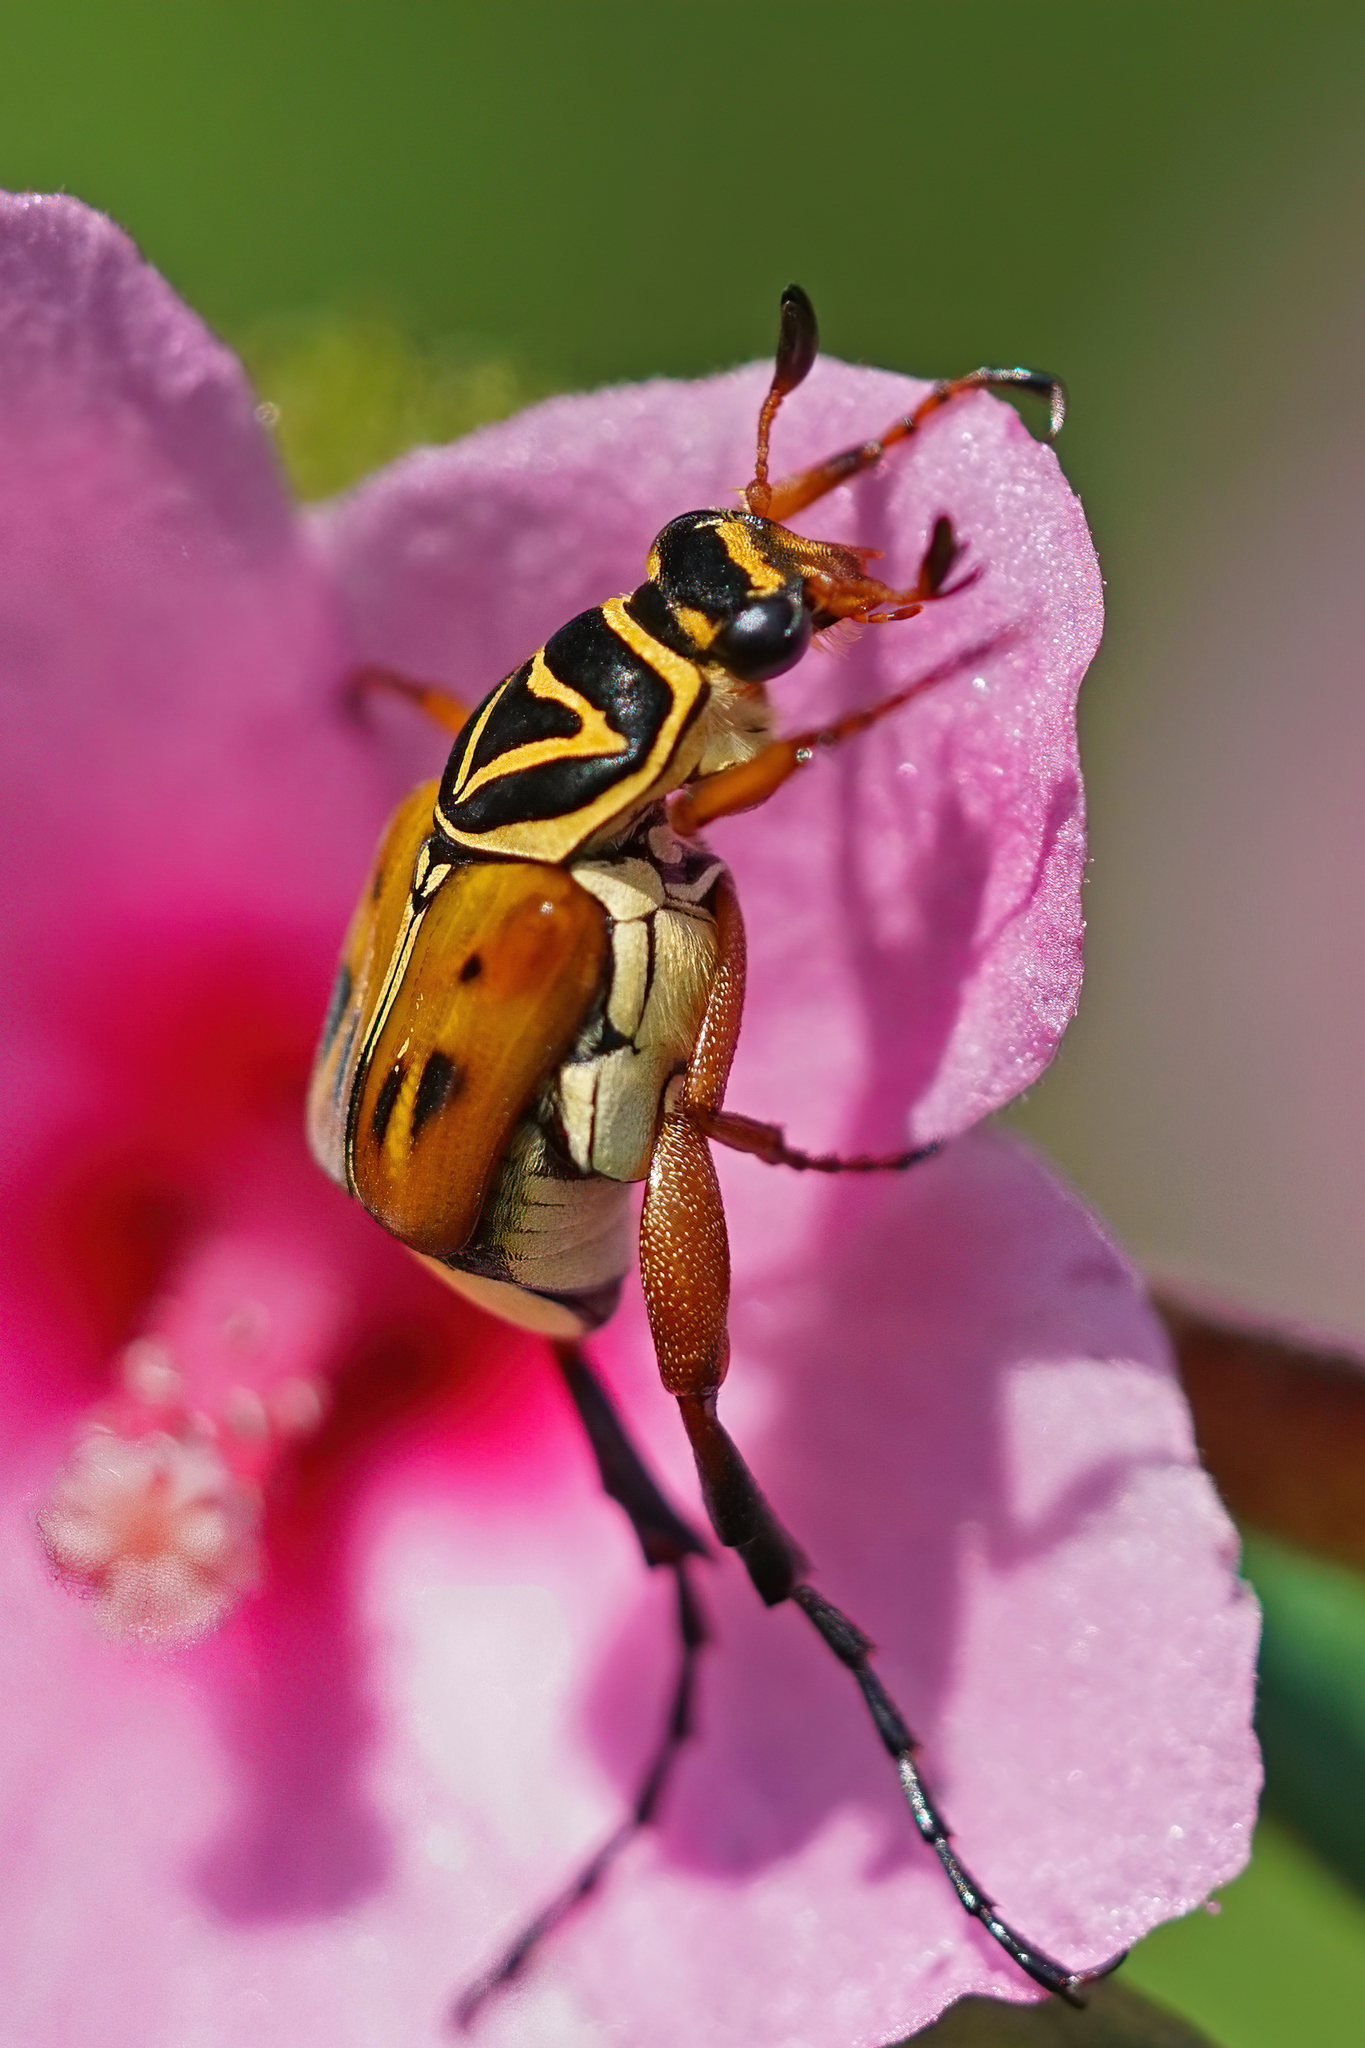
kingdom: Animalia
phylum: Arthropoda
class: Insecta
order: Coleoptera
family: Scarabaeidae
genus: Trigonopeltastes
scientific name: Trigonopeltastes delta
